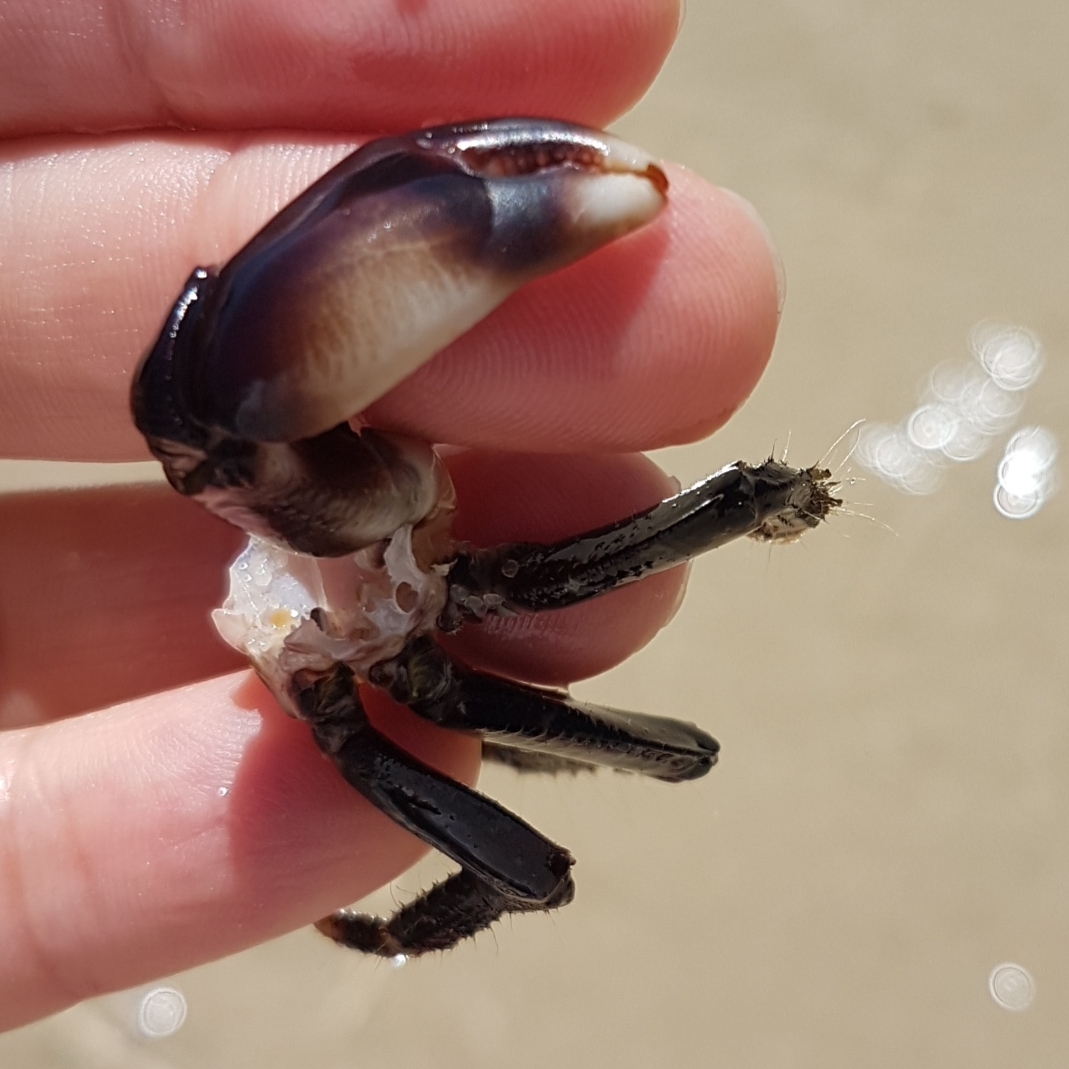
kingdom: Animalia
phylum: Arthropoda
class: Malacostraca
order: Decapoda
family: Grapsidae
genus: Pachygrapsus
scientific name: Pachygrapsus marmoratus
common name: Marbled rock crab
